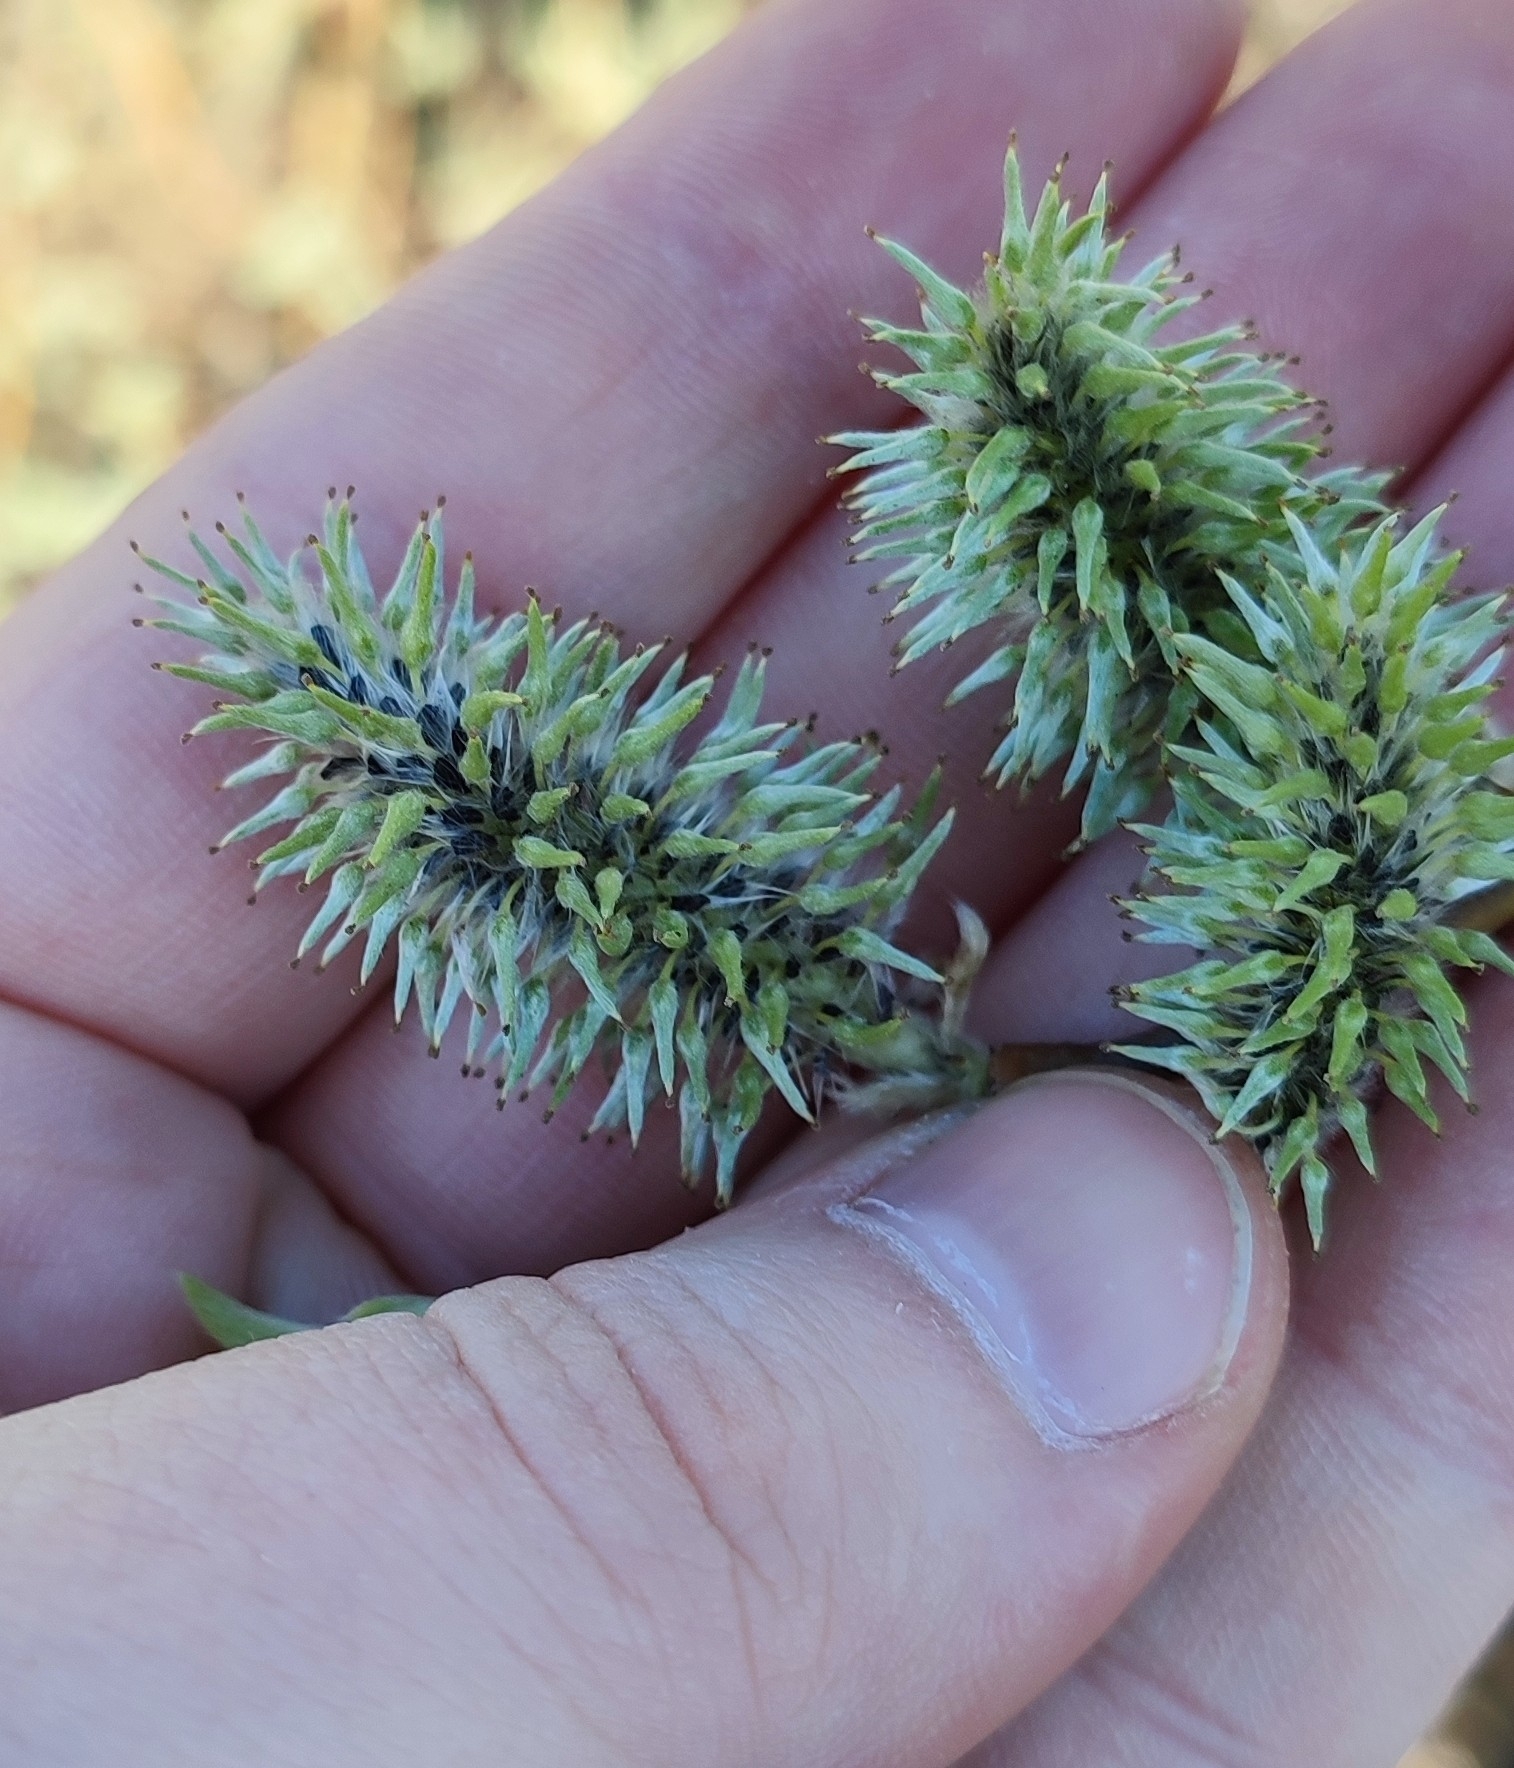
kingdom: Plantae
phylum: Tracheophyta
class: Magnoliopsida
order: Malpighiales
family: Salicaceae
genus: Salix
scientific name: Salix pentandra
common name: Bay willow
